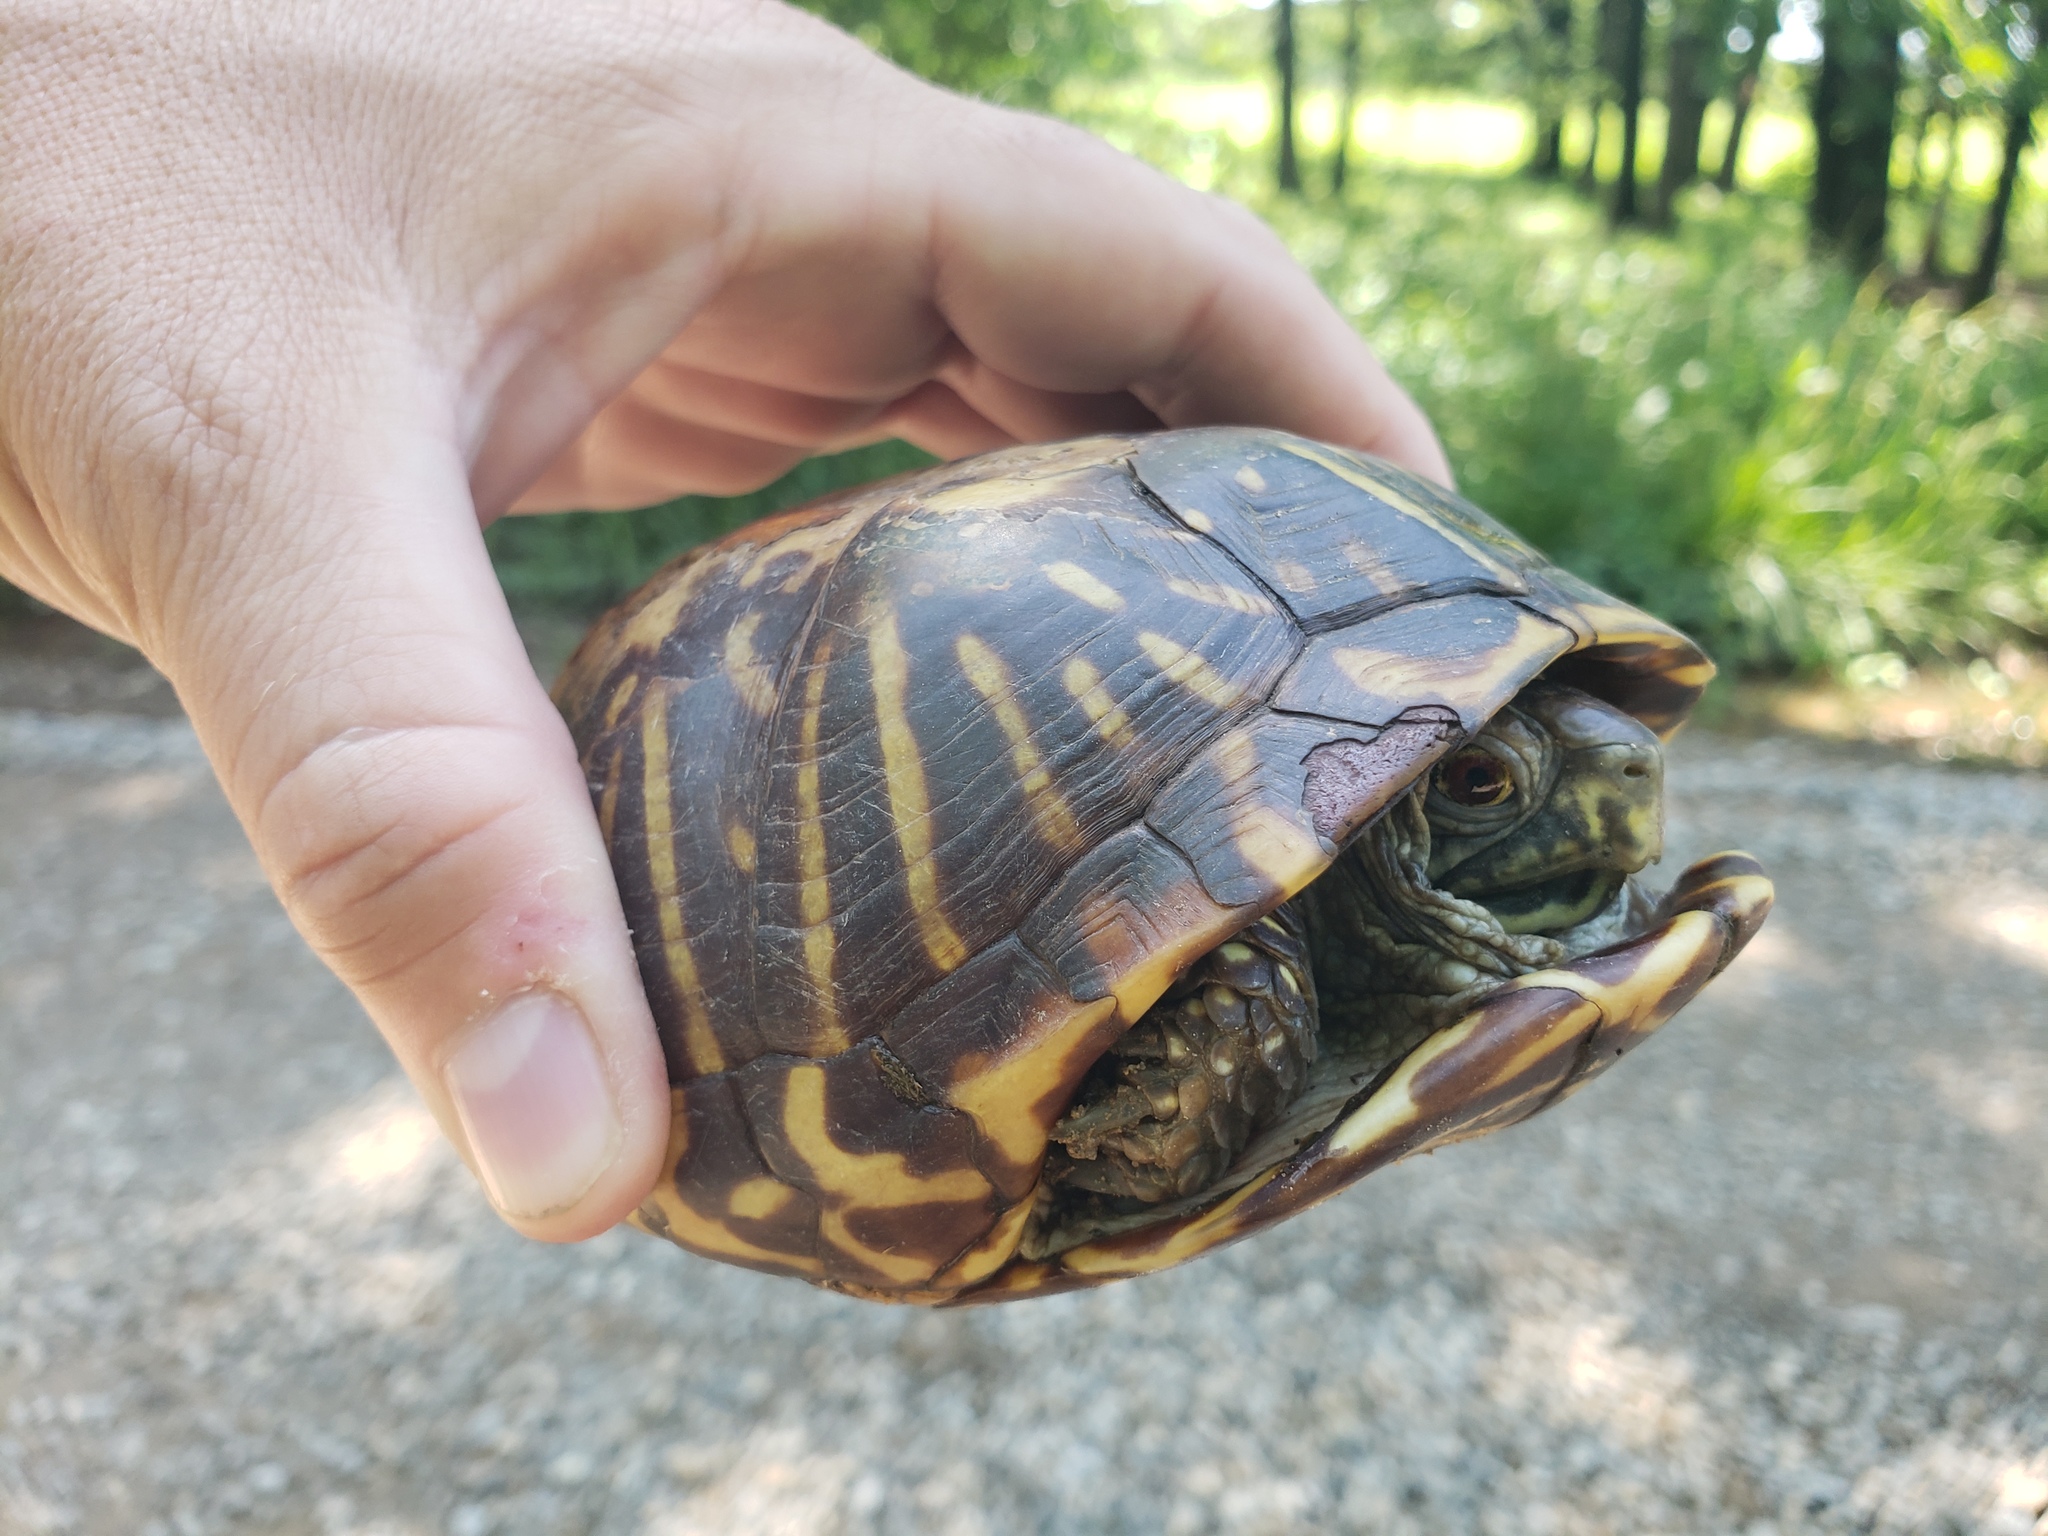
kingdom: Animalia
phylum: Chordata
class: Testudines
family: Emydidae
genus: Terrapene
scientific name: Terrapene ornata
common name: Western box turtle
